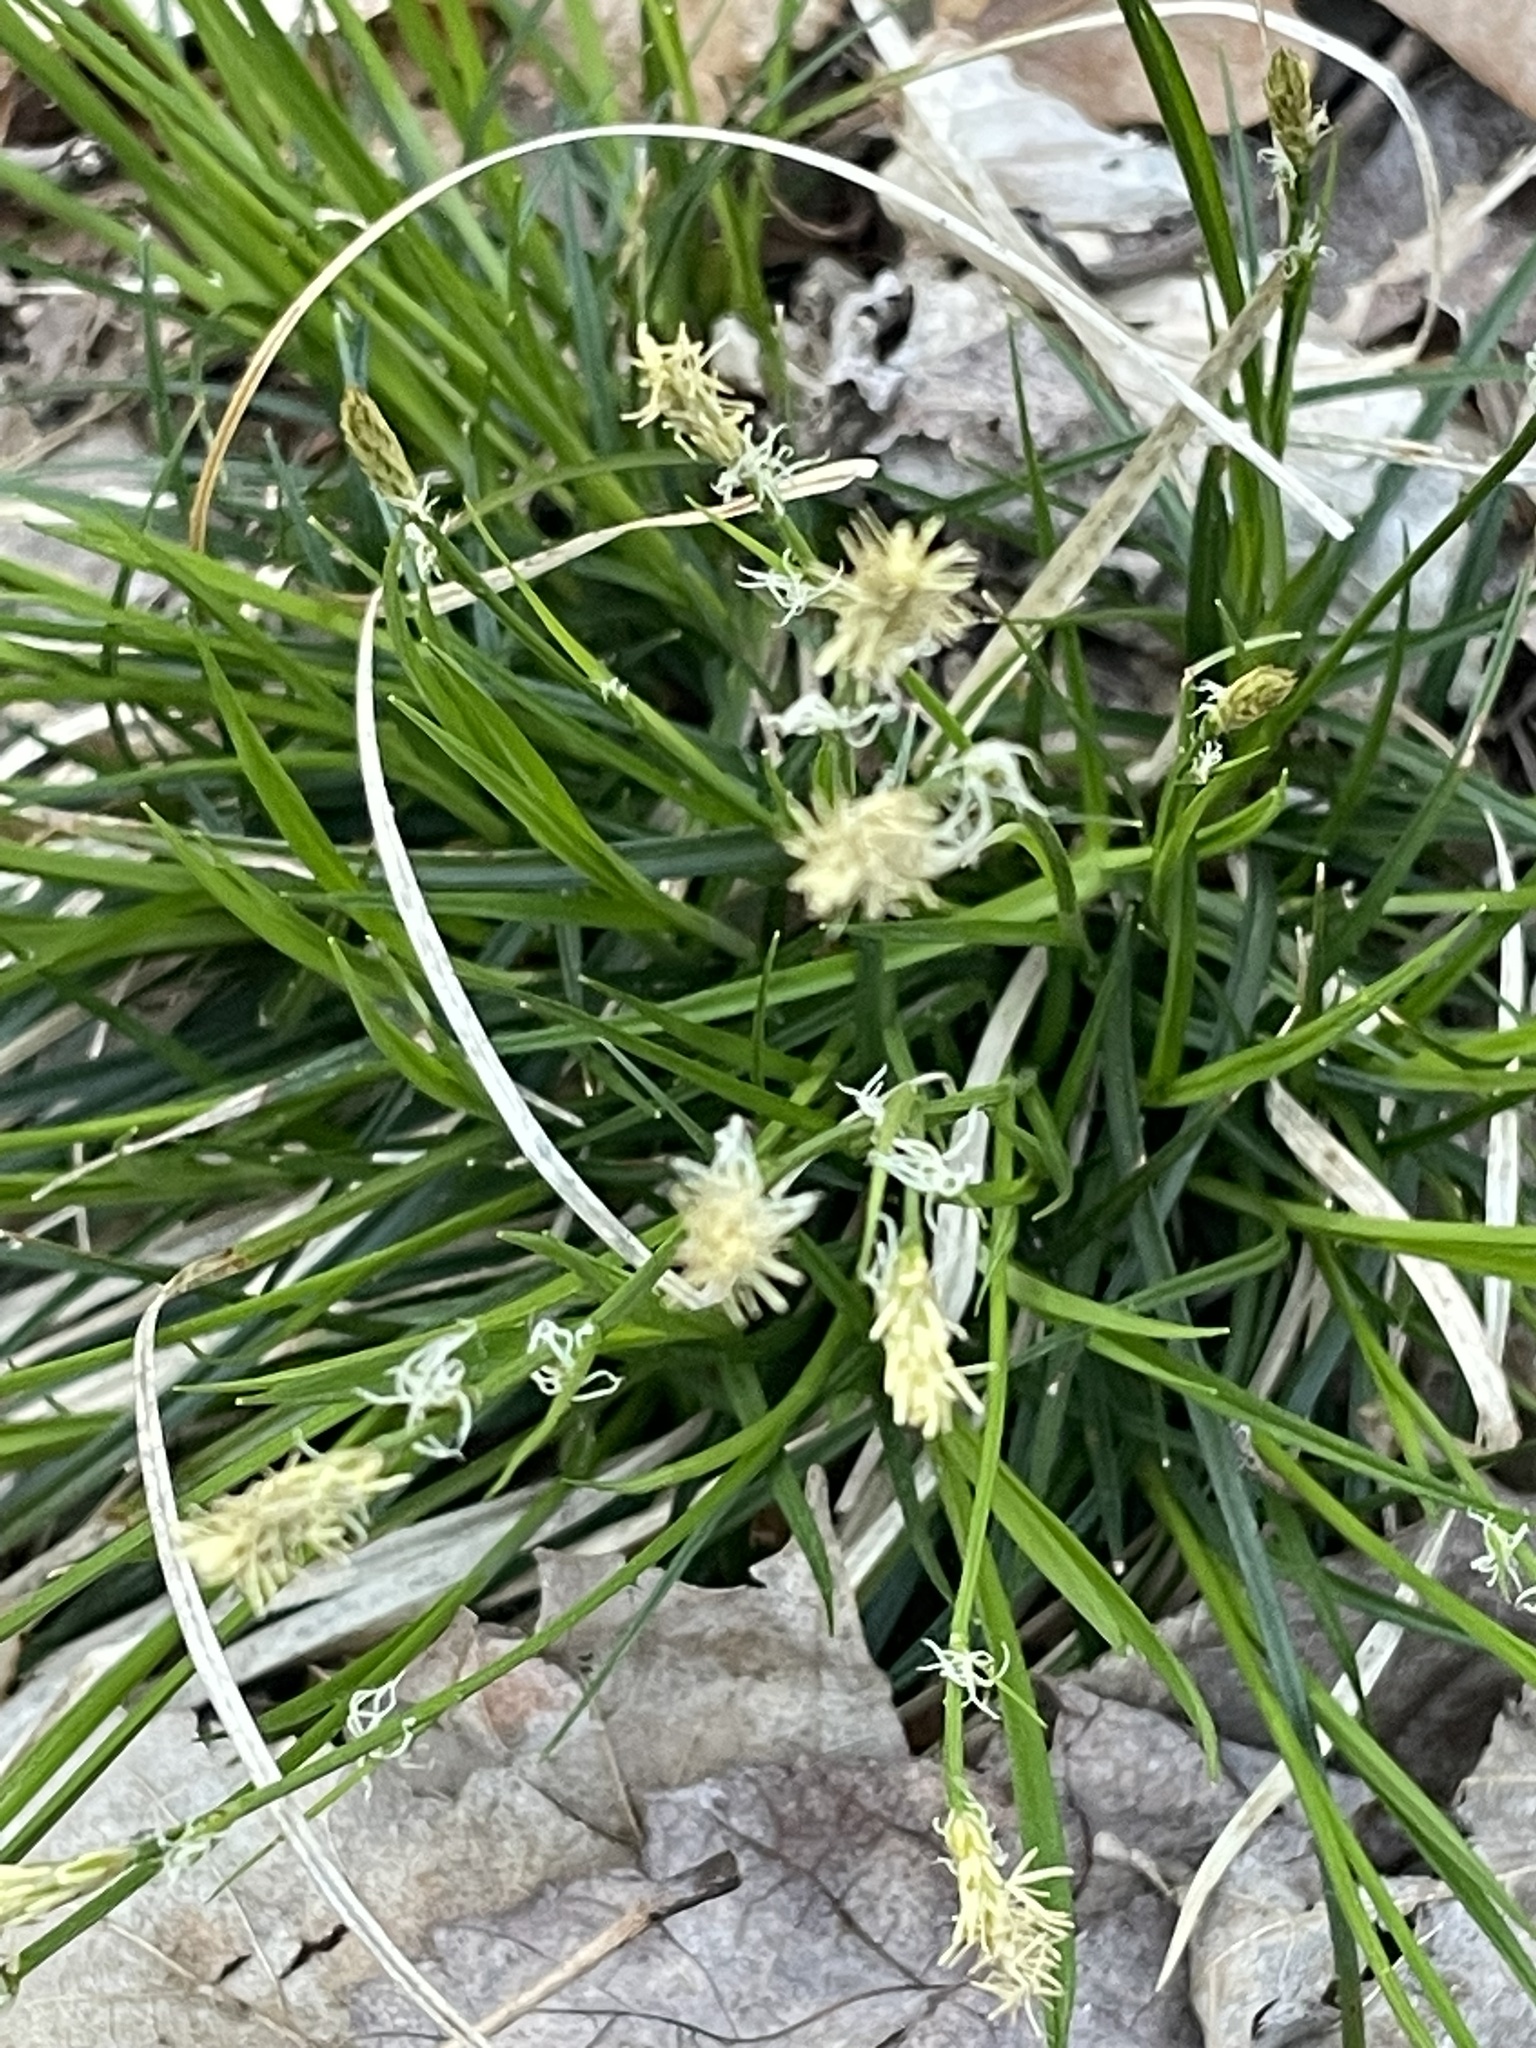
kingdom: Plantae
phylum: Tracheophyta
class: Liliopsida
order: Poales
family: Cyperaceae
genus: Carex
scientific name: Carex pensylvanica
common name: Common oak sedge
